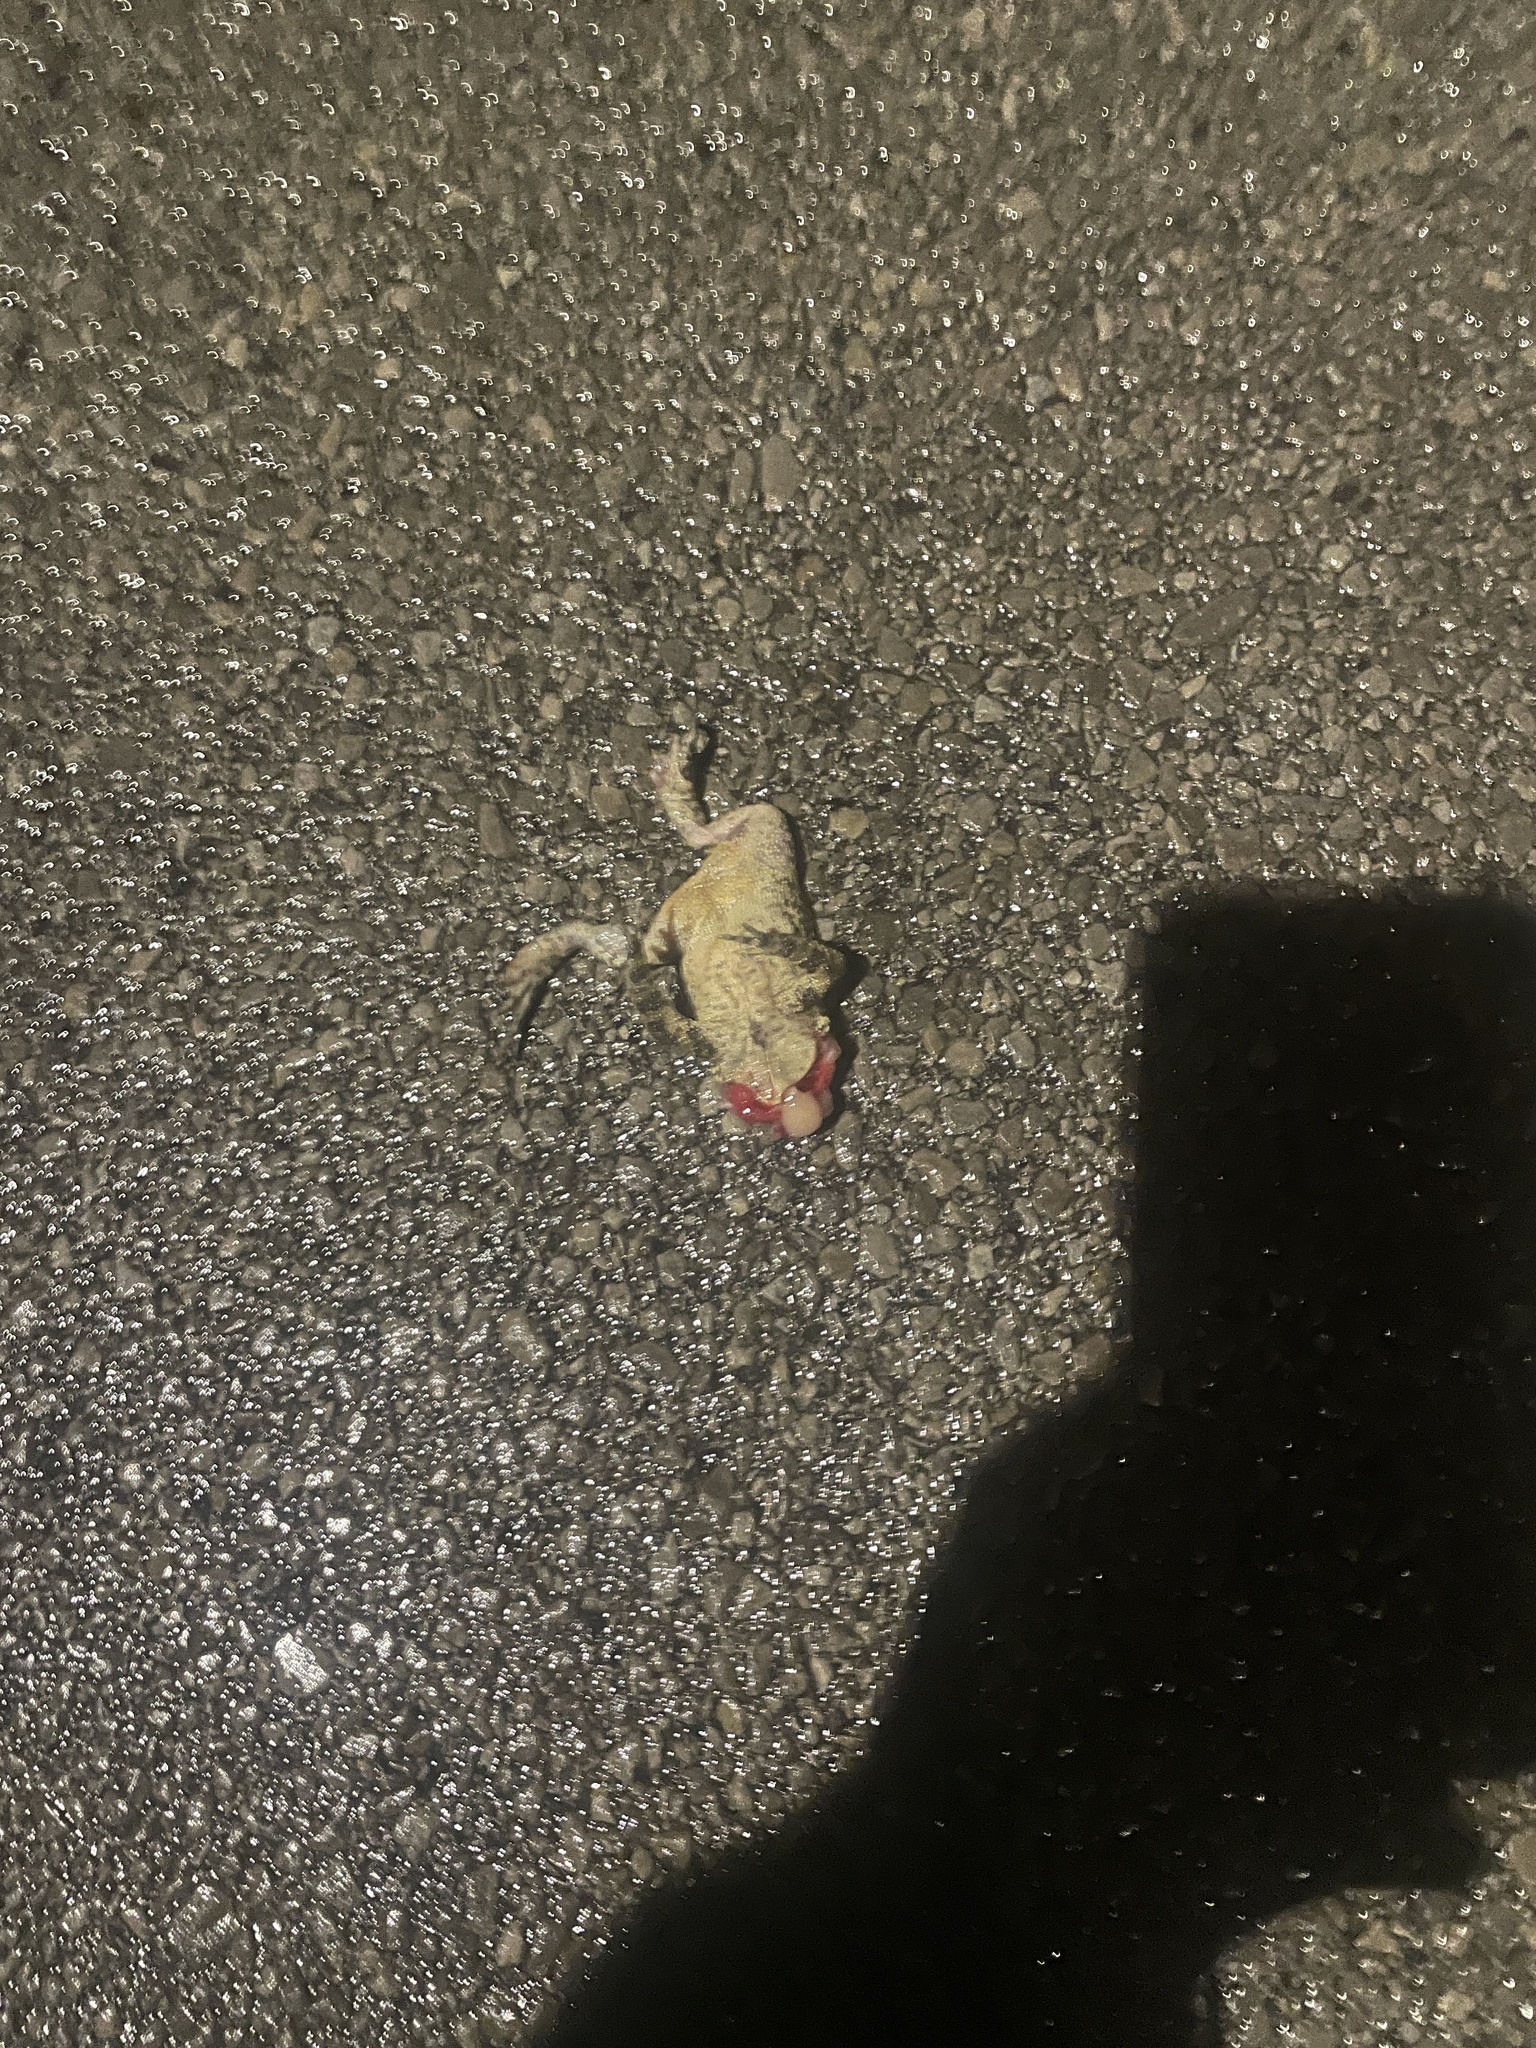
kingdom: Animalia
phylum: Chordata
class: Amphibia
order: Anura
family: Bufonidae
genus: Anaxyrus
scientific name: Anaxyrus americanus
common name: American toad
